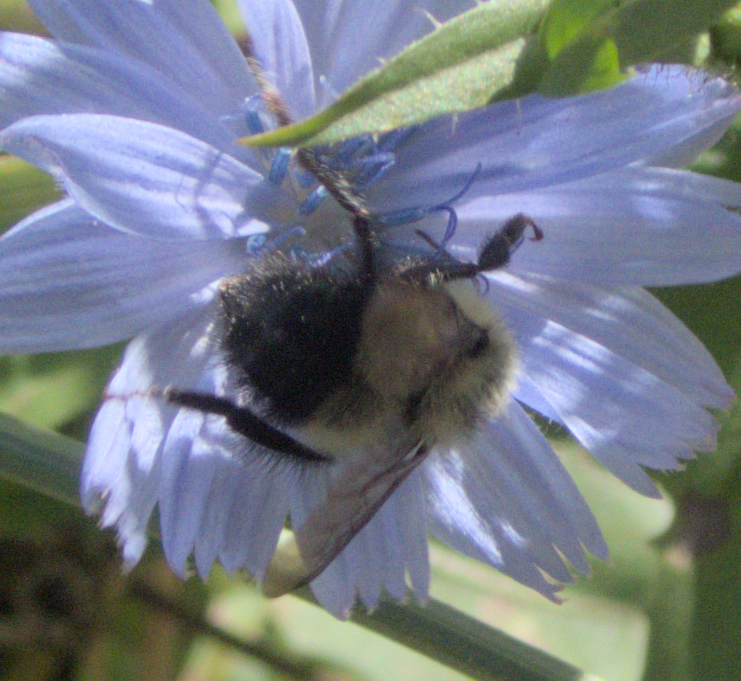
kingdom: Animalia
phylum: Arthropoda
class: Insecta
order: Hymenoptera
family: Apidae
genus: Bombus
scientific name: Bombus vagans
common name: Half-black bumble bee
